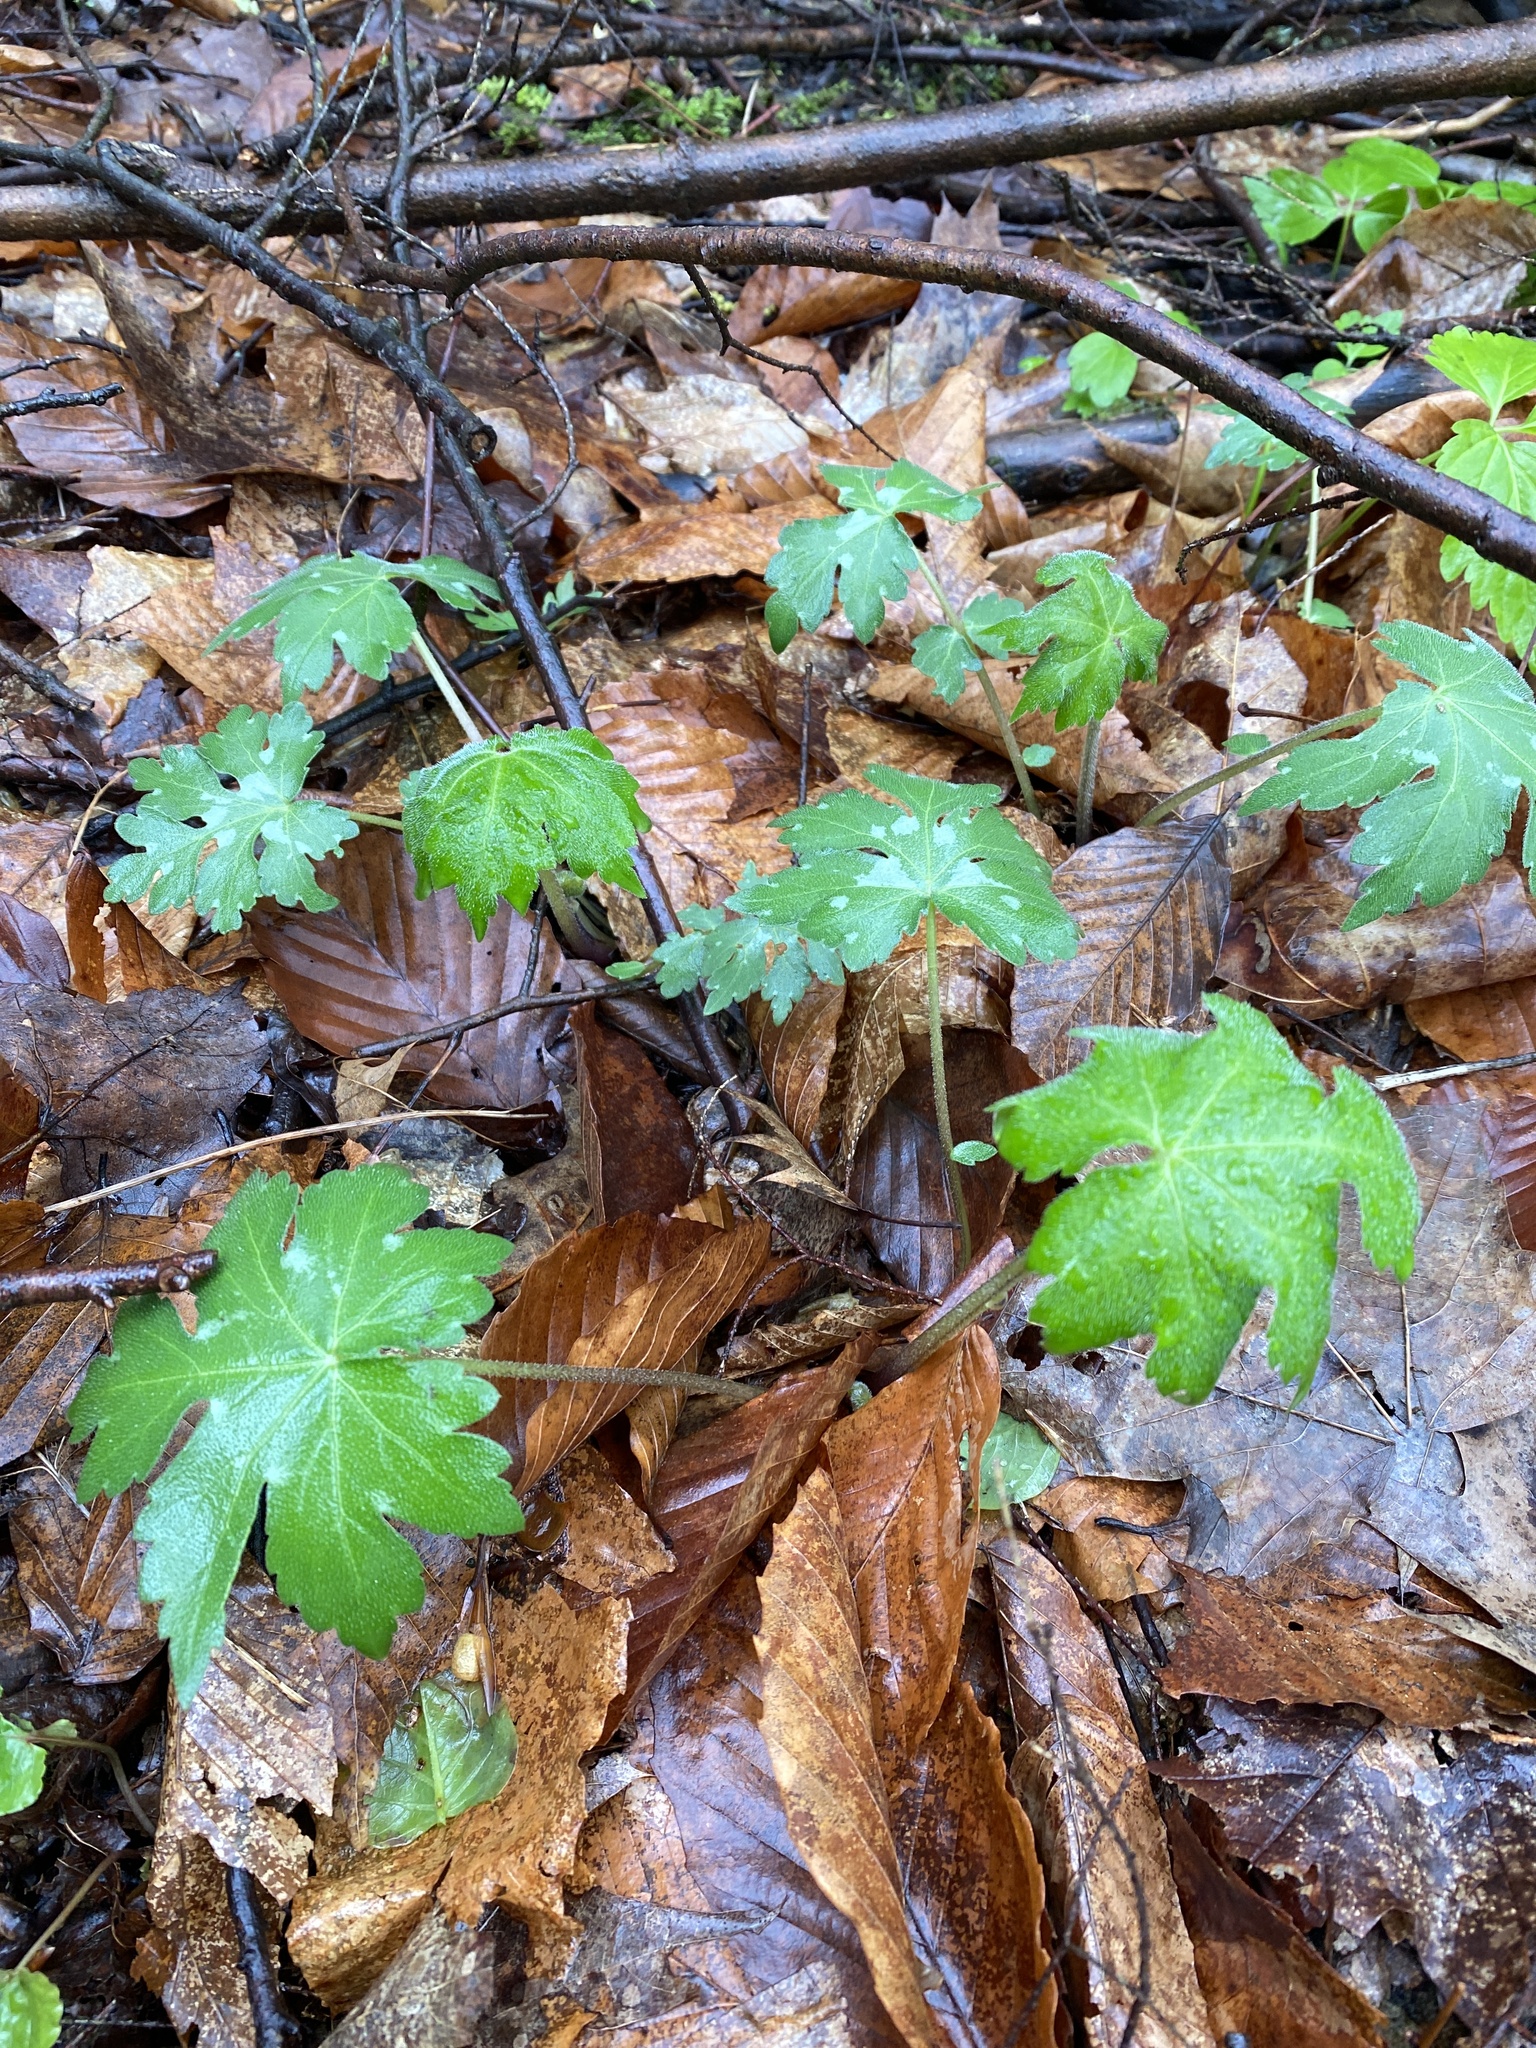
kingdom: Plantae
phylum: Tracheophyta
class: Magnoliopsida
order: Boraginales
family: Hydrophyllaceae
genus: Hydrophyllum
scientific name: Hydrophyllum canadense
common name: Canada waterleaf
